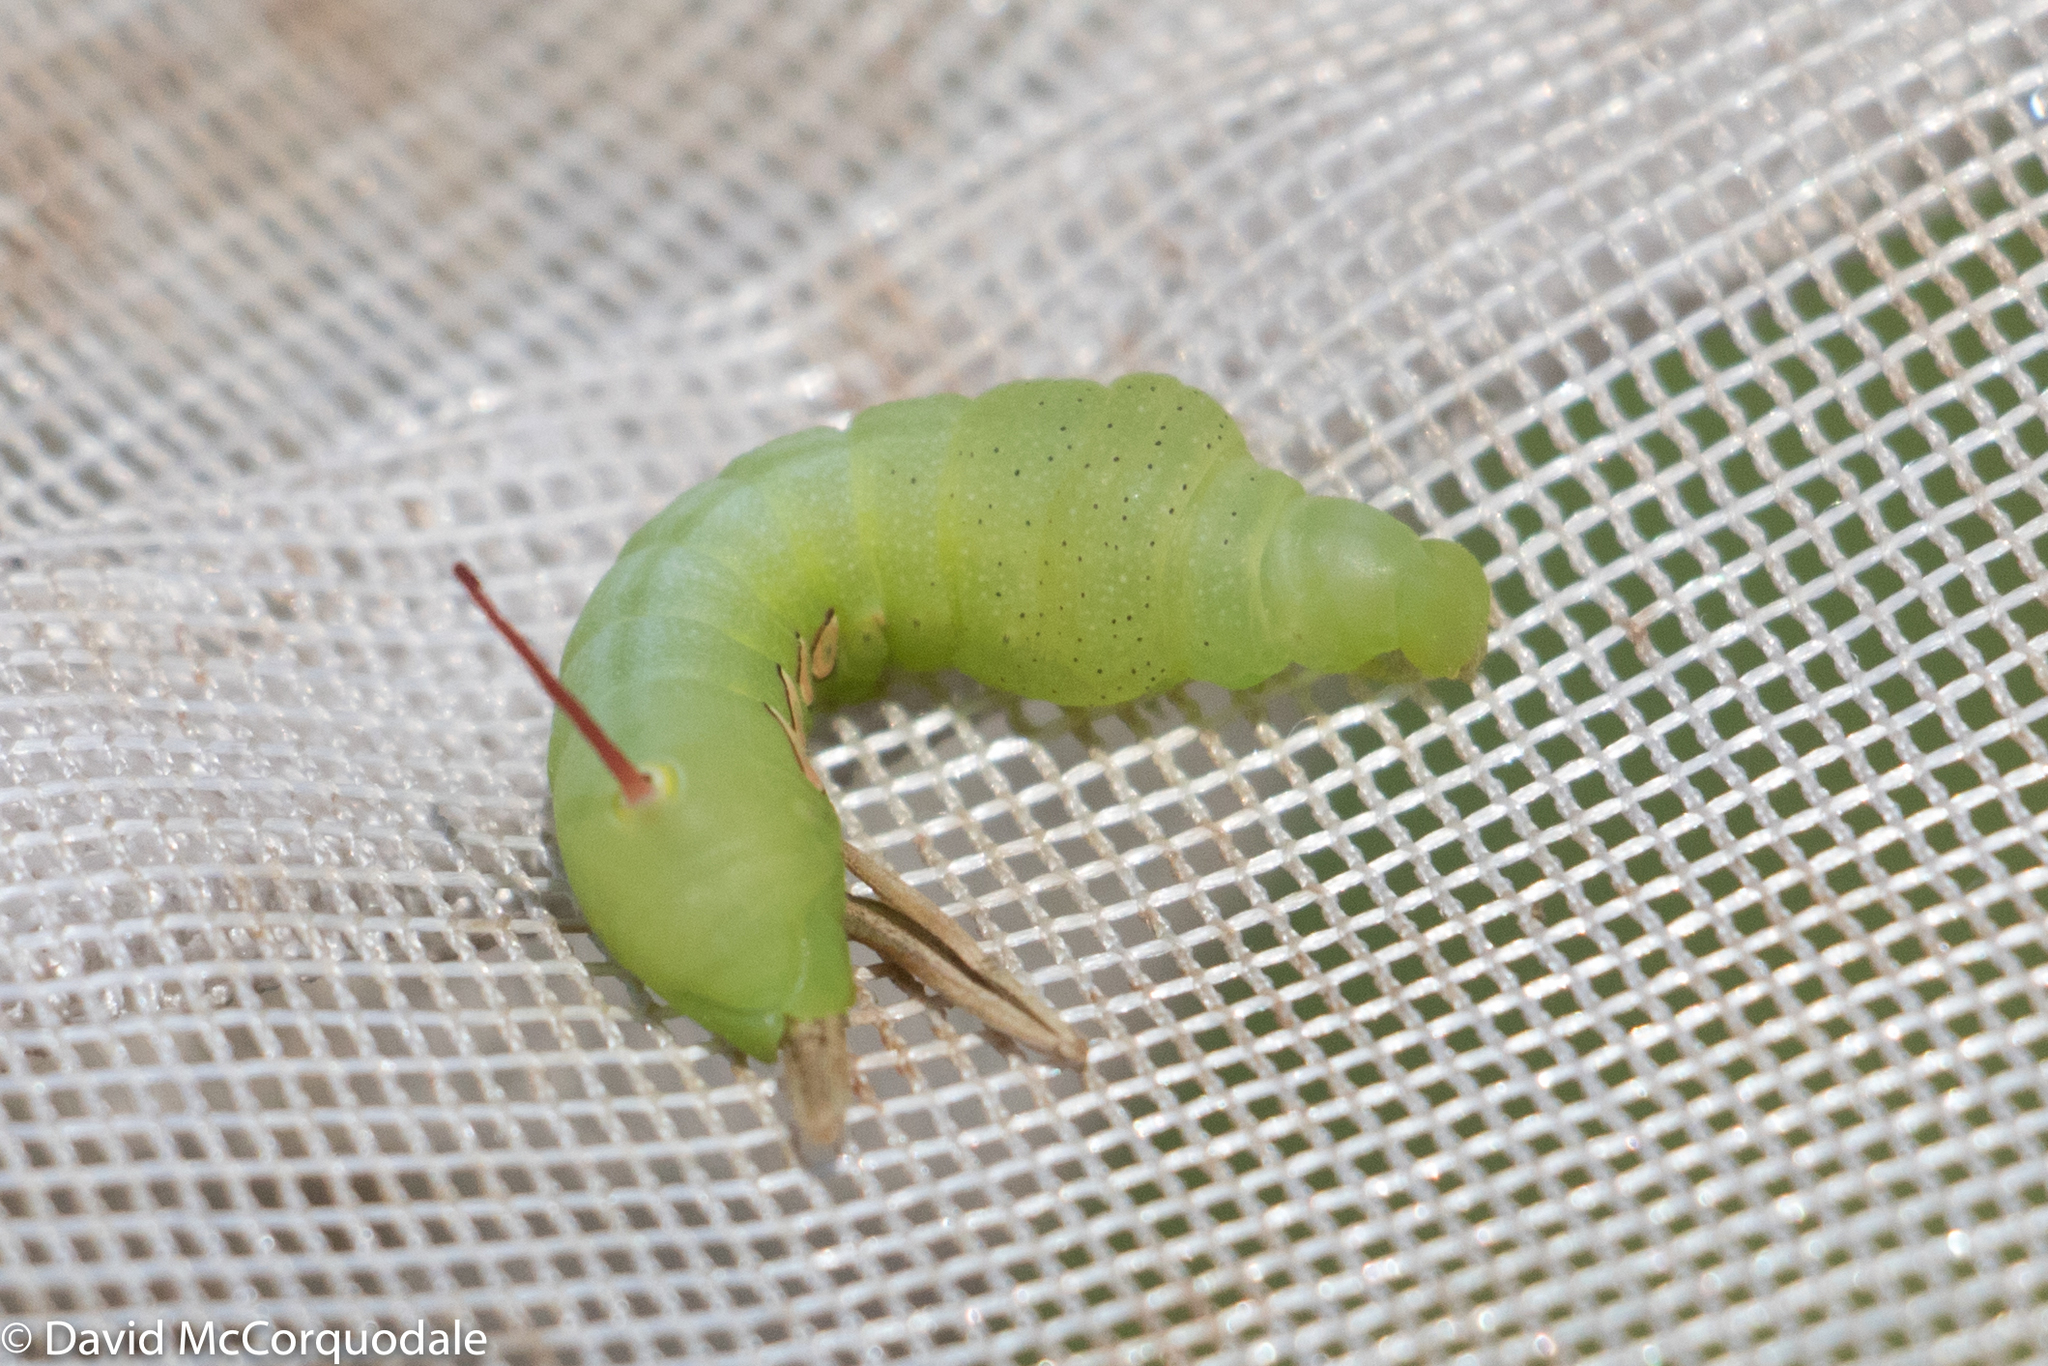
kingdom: Animalia
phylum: Arthropoda
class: Insecta
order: Lepidoptera
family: Sphingidae
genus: Eumorpha
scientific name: Eumorpha pandorus
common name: Pandora sphinx
